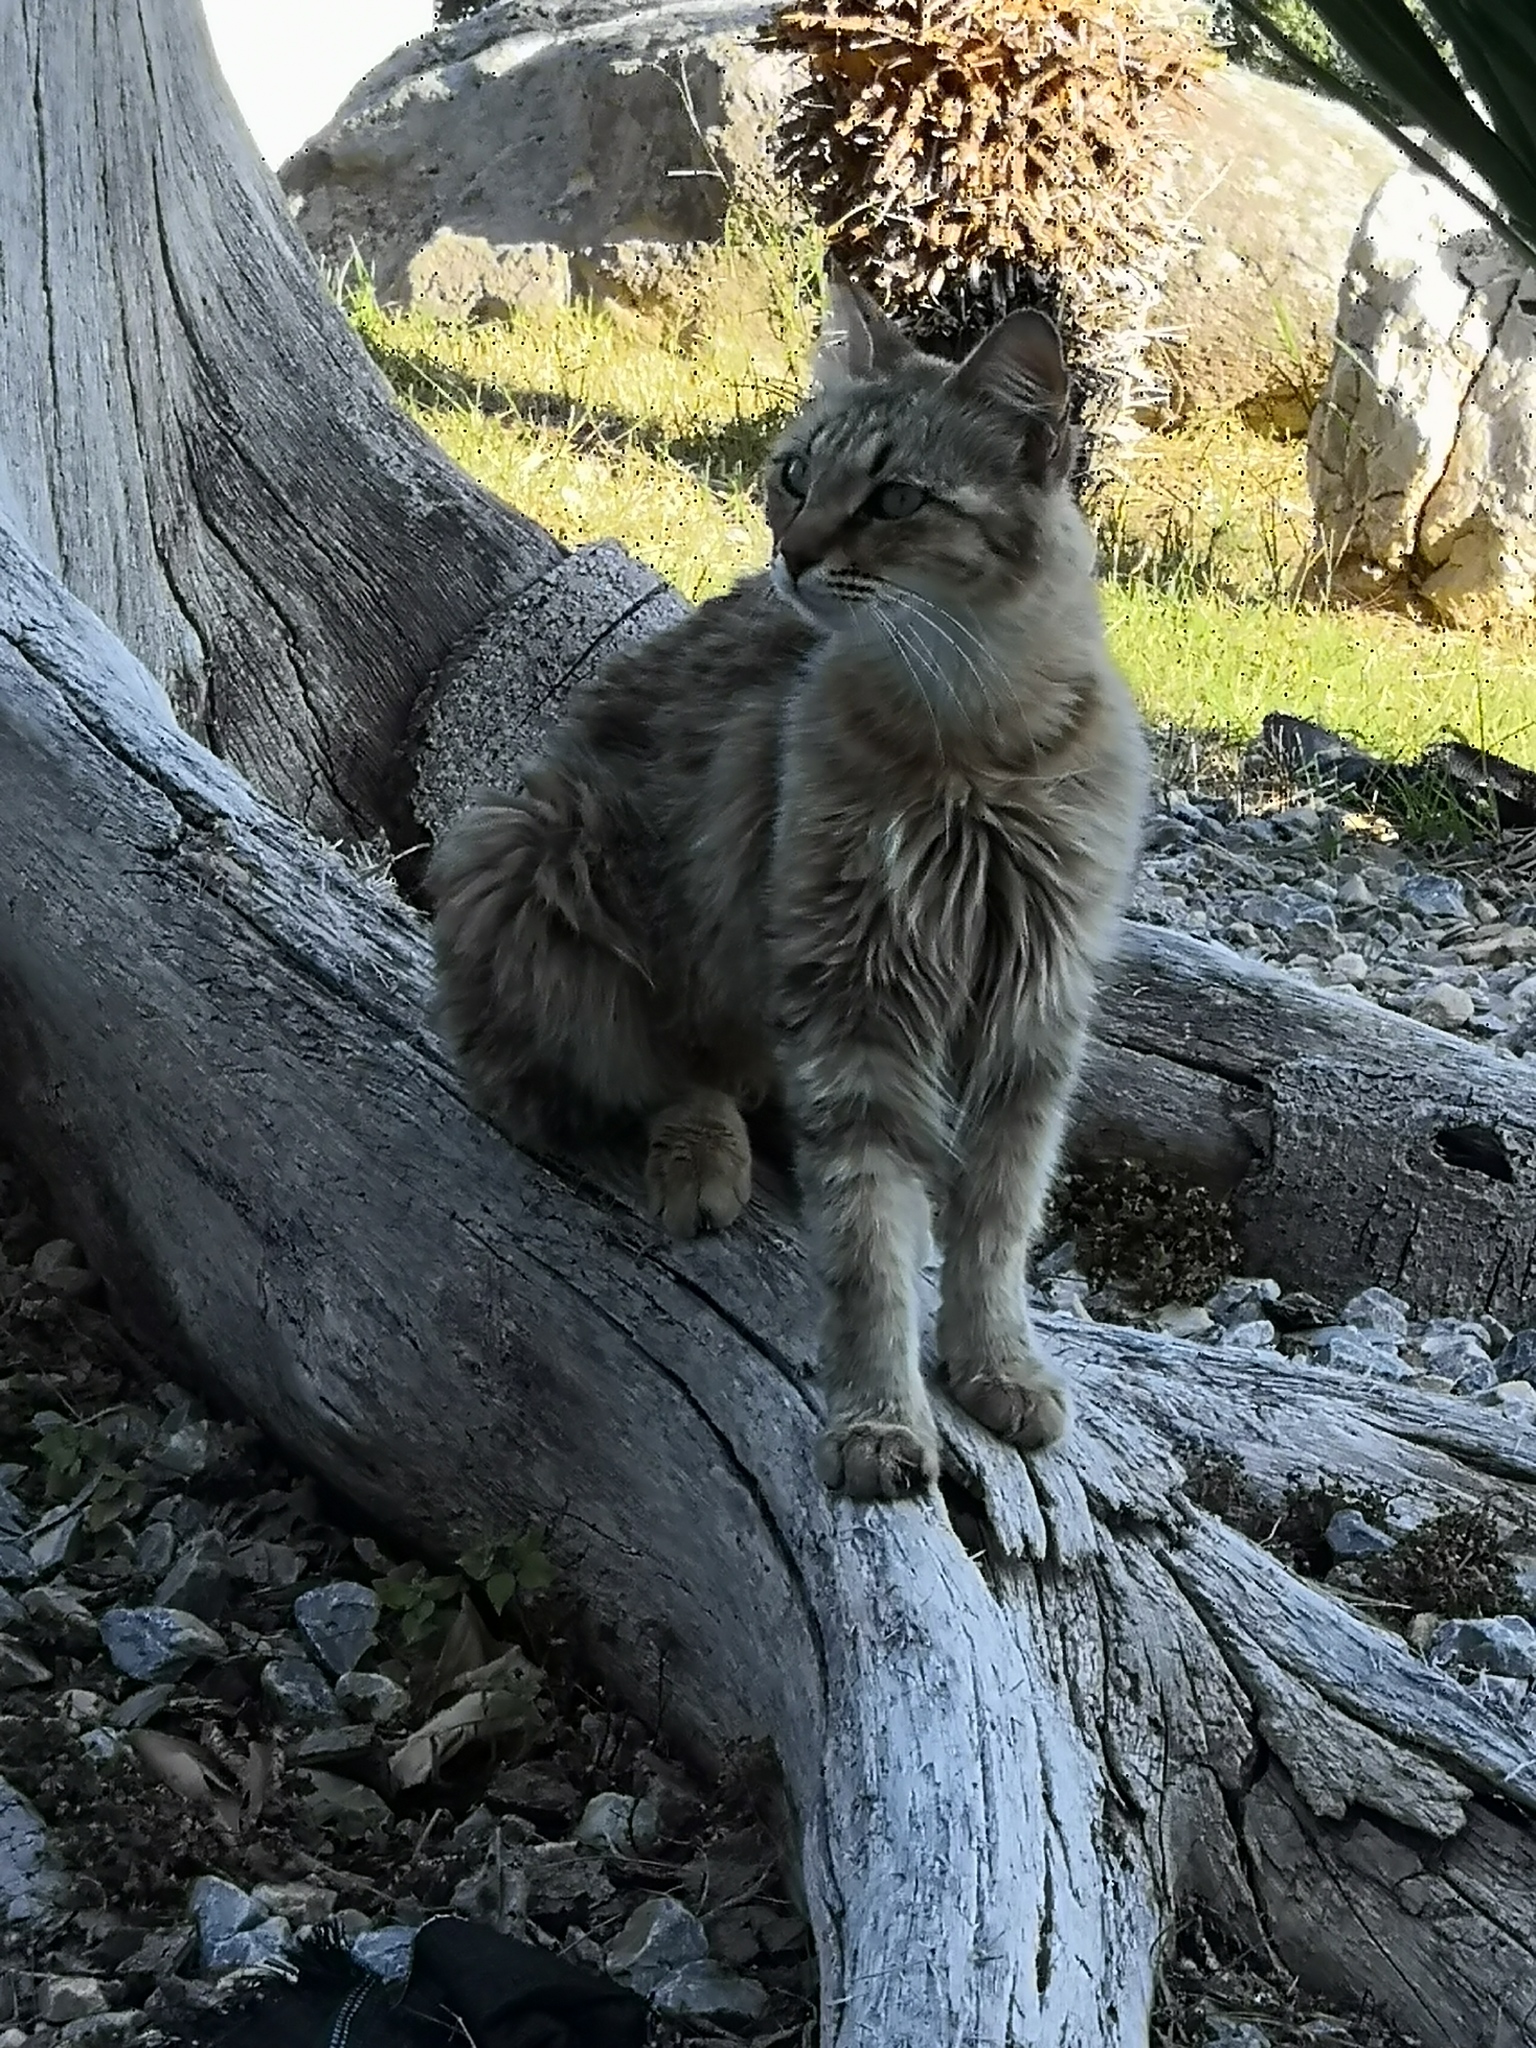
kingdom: Animalia
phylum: Chordata
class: Mammalia
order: Carnivora
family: Felidae
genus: Felis
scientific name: Felis catus
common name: Domestic cat
